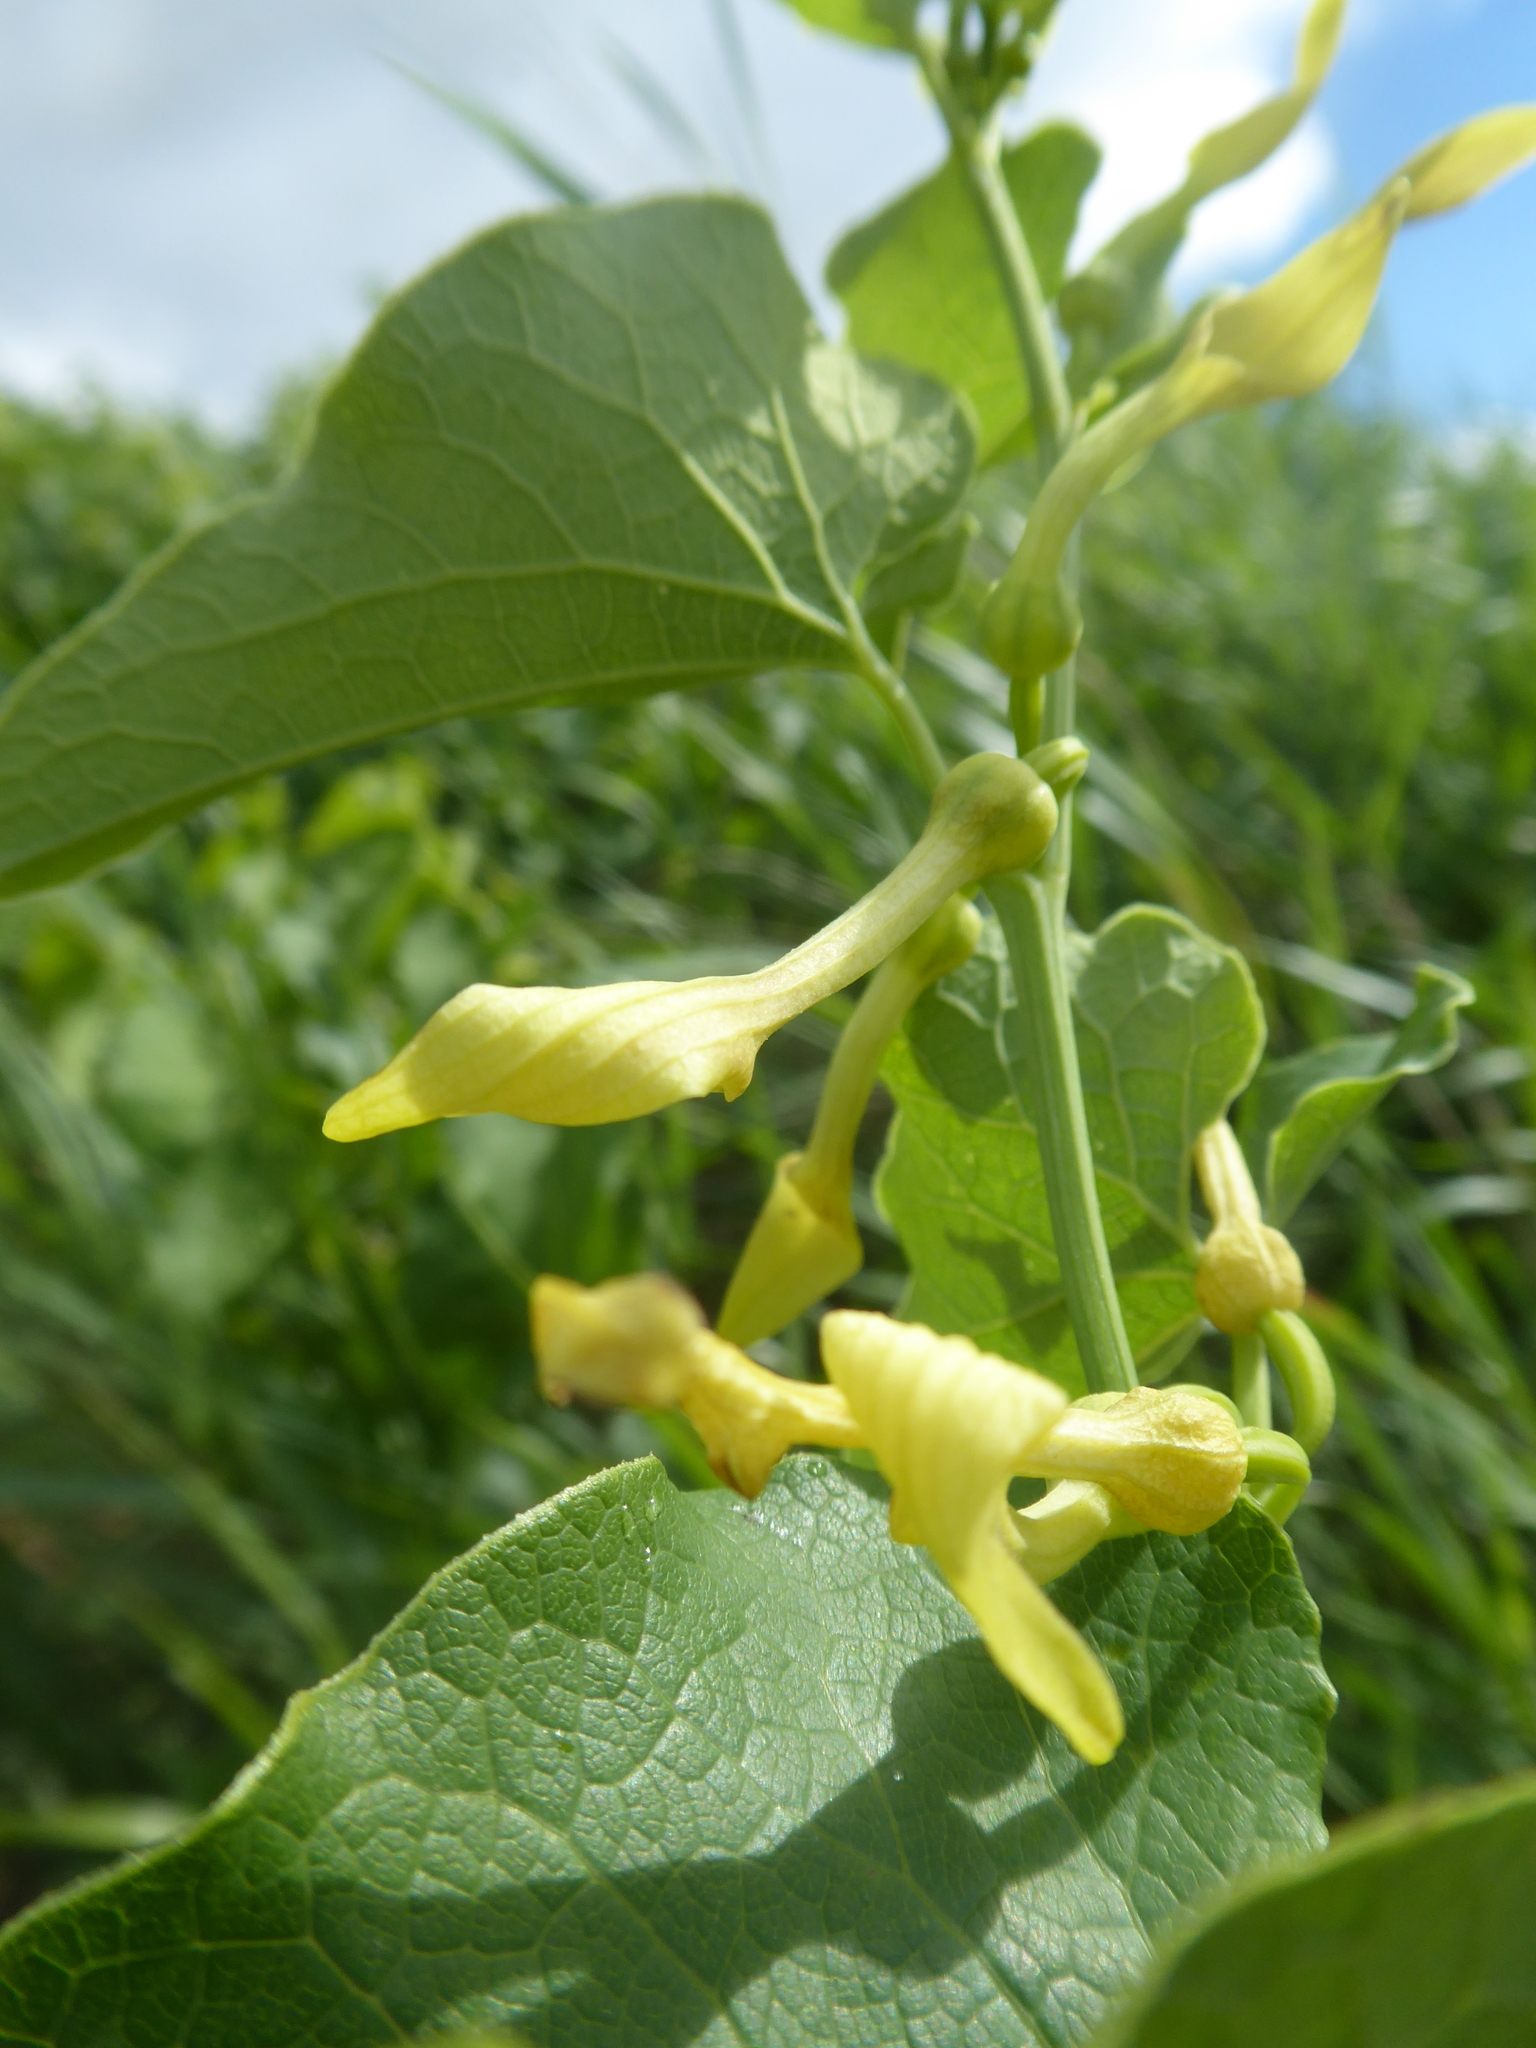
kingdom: Plantae
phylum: Tracheophyta
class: Magnoliopsida
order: Piperales
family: Aristolochiaceae
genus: Aristolochia
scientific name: Aristolochia clematitis
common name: Birthwort
